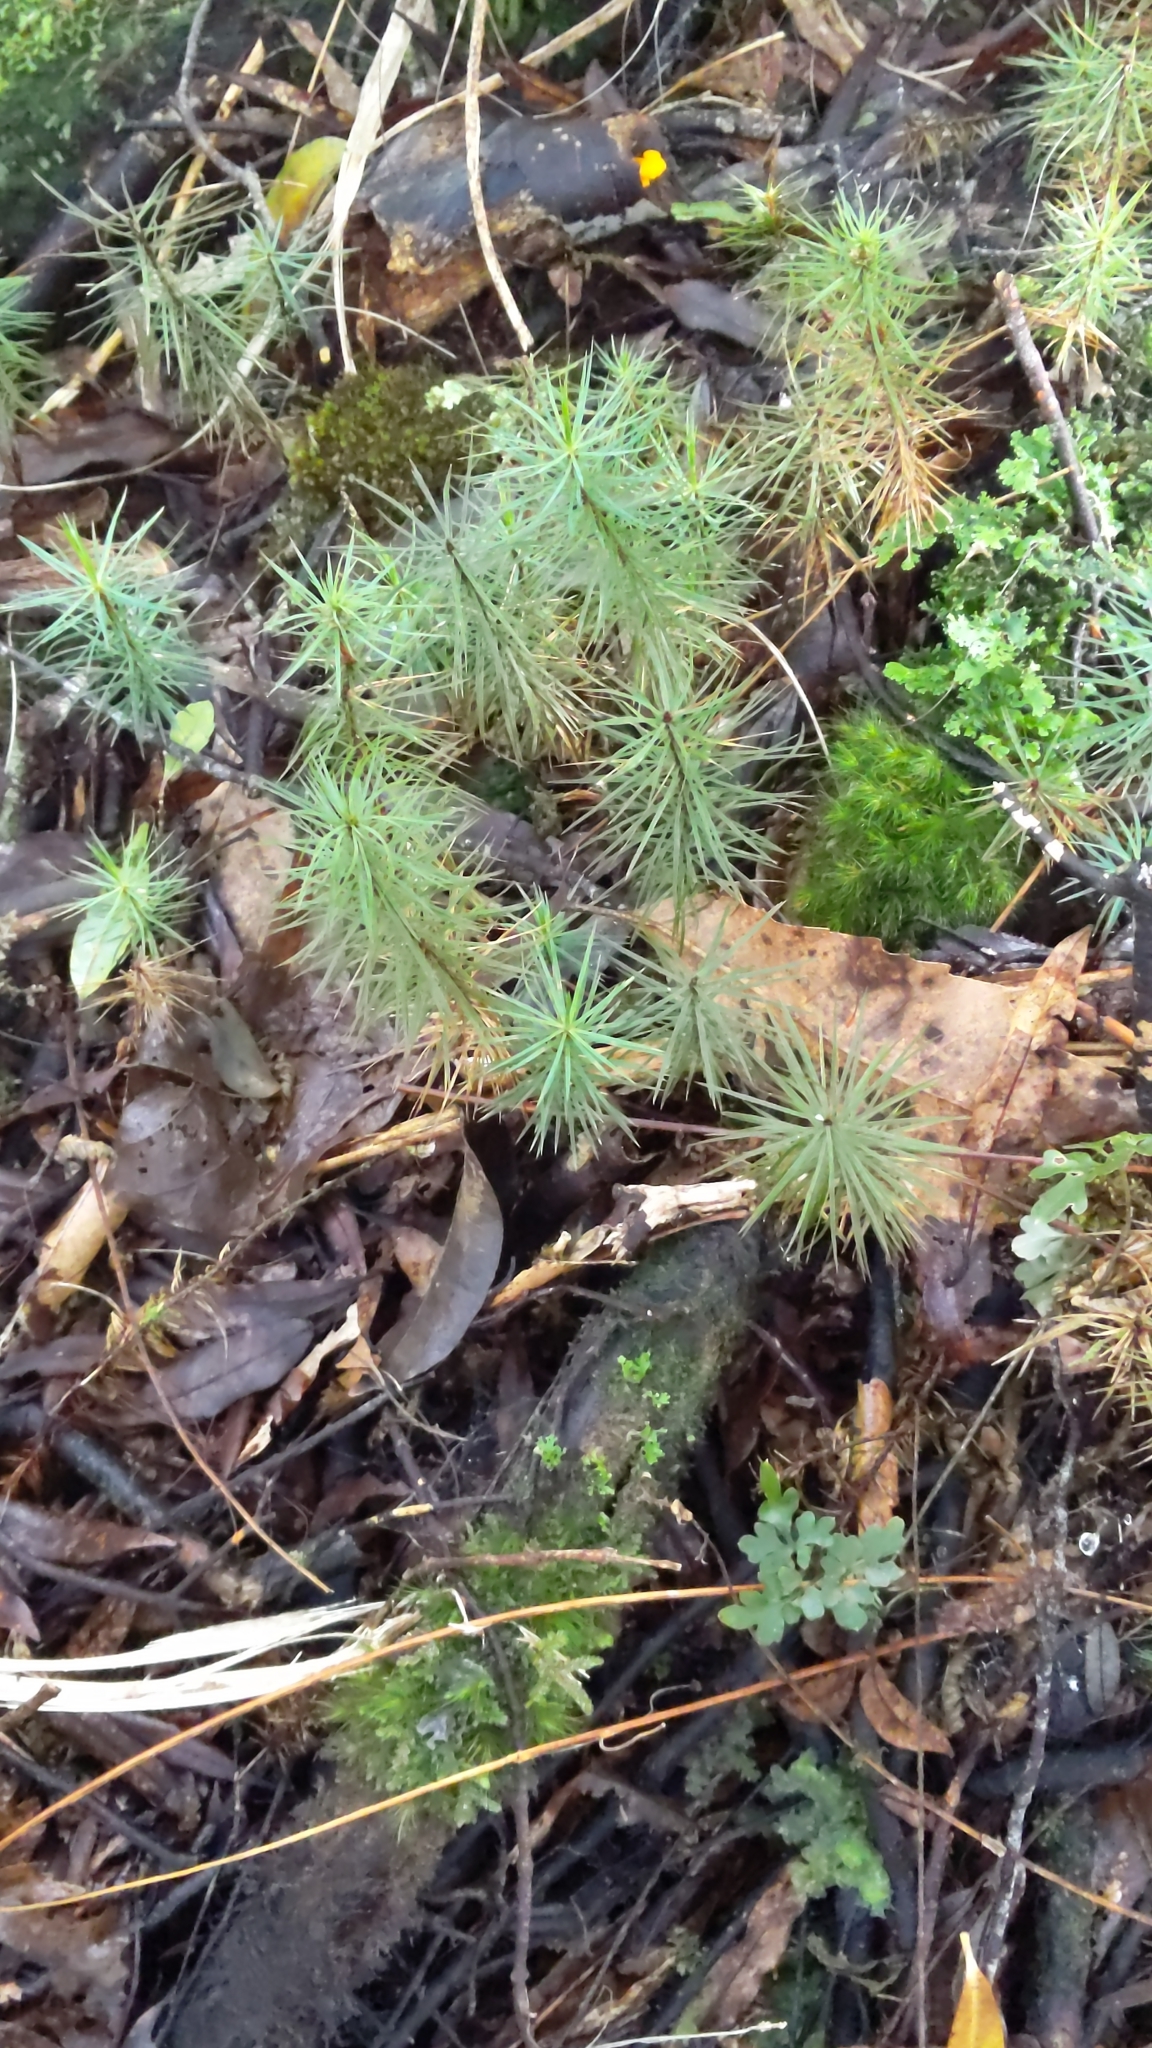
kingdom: Plantae
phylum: Bryophyta
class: Polytrichopsida
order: Polytrichales
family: Polytrichaceae
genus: Dawsonia
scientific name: Dawsonia superba
